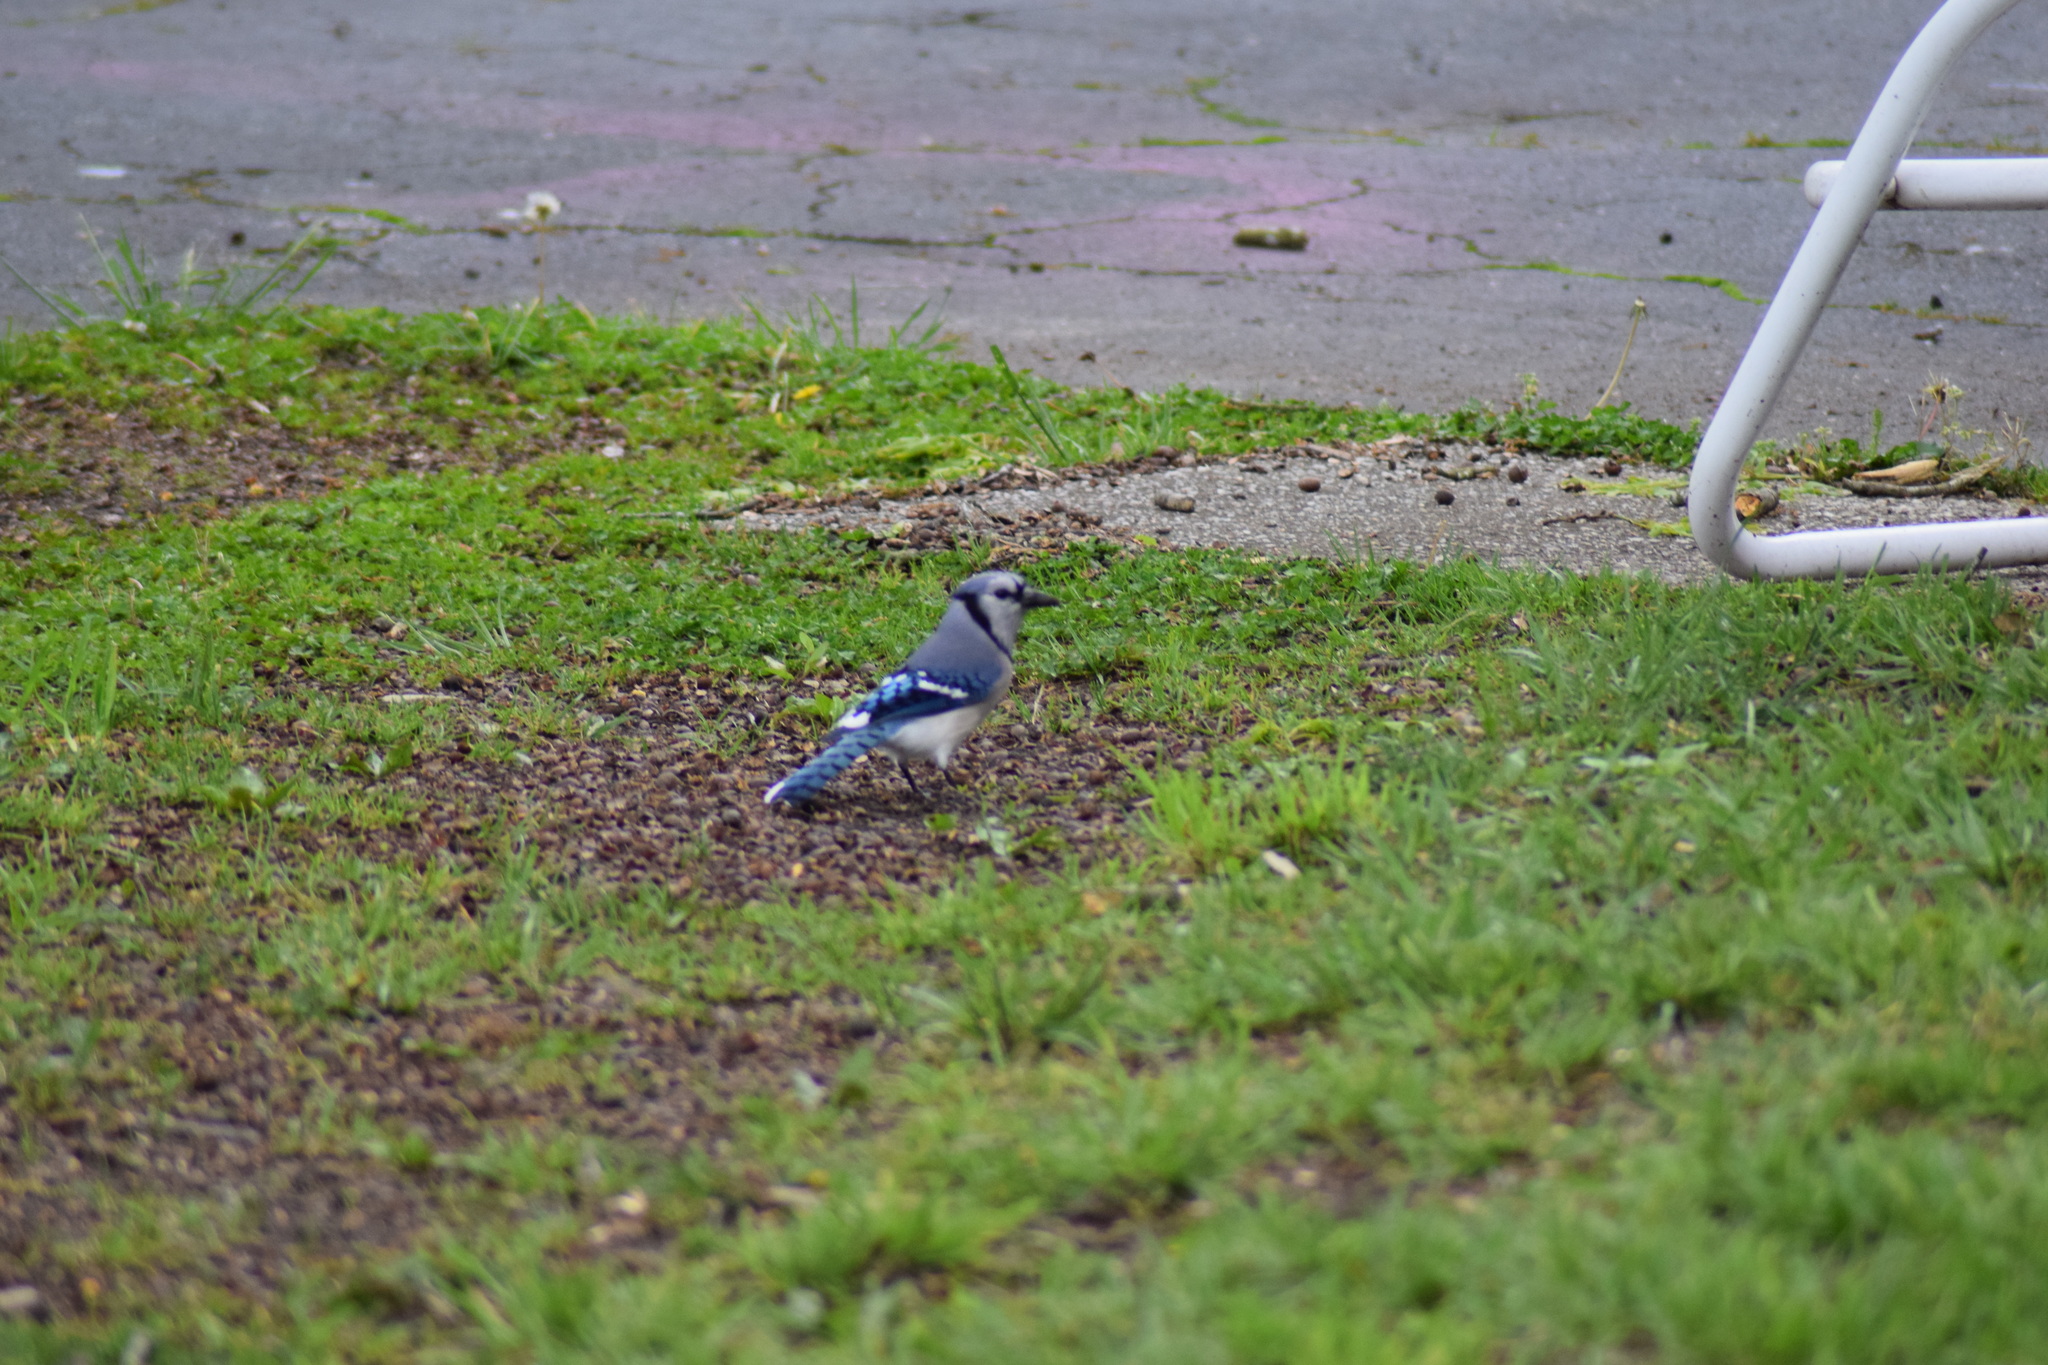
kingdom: Animalia
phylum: Chordata
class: Aves
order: Passeriformes
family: Corvidae
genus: Cyanocitta
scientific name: Cyanocitta cristata
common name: Blue jay
